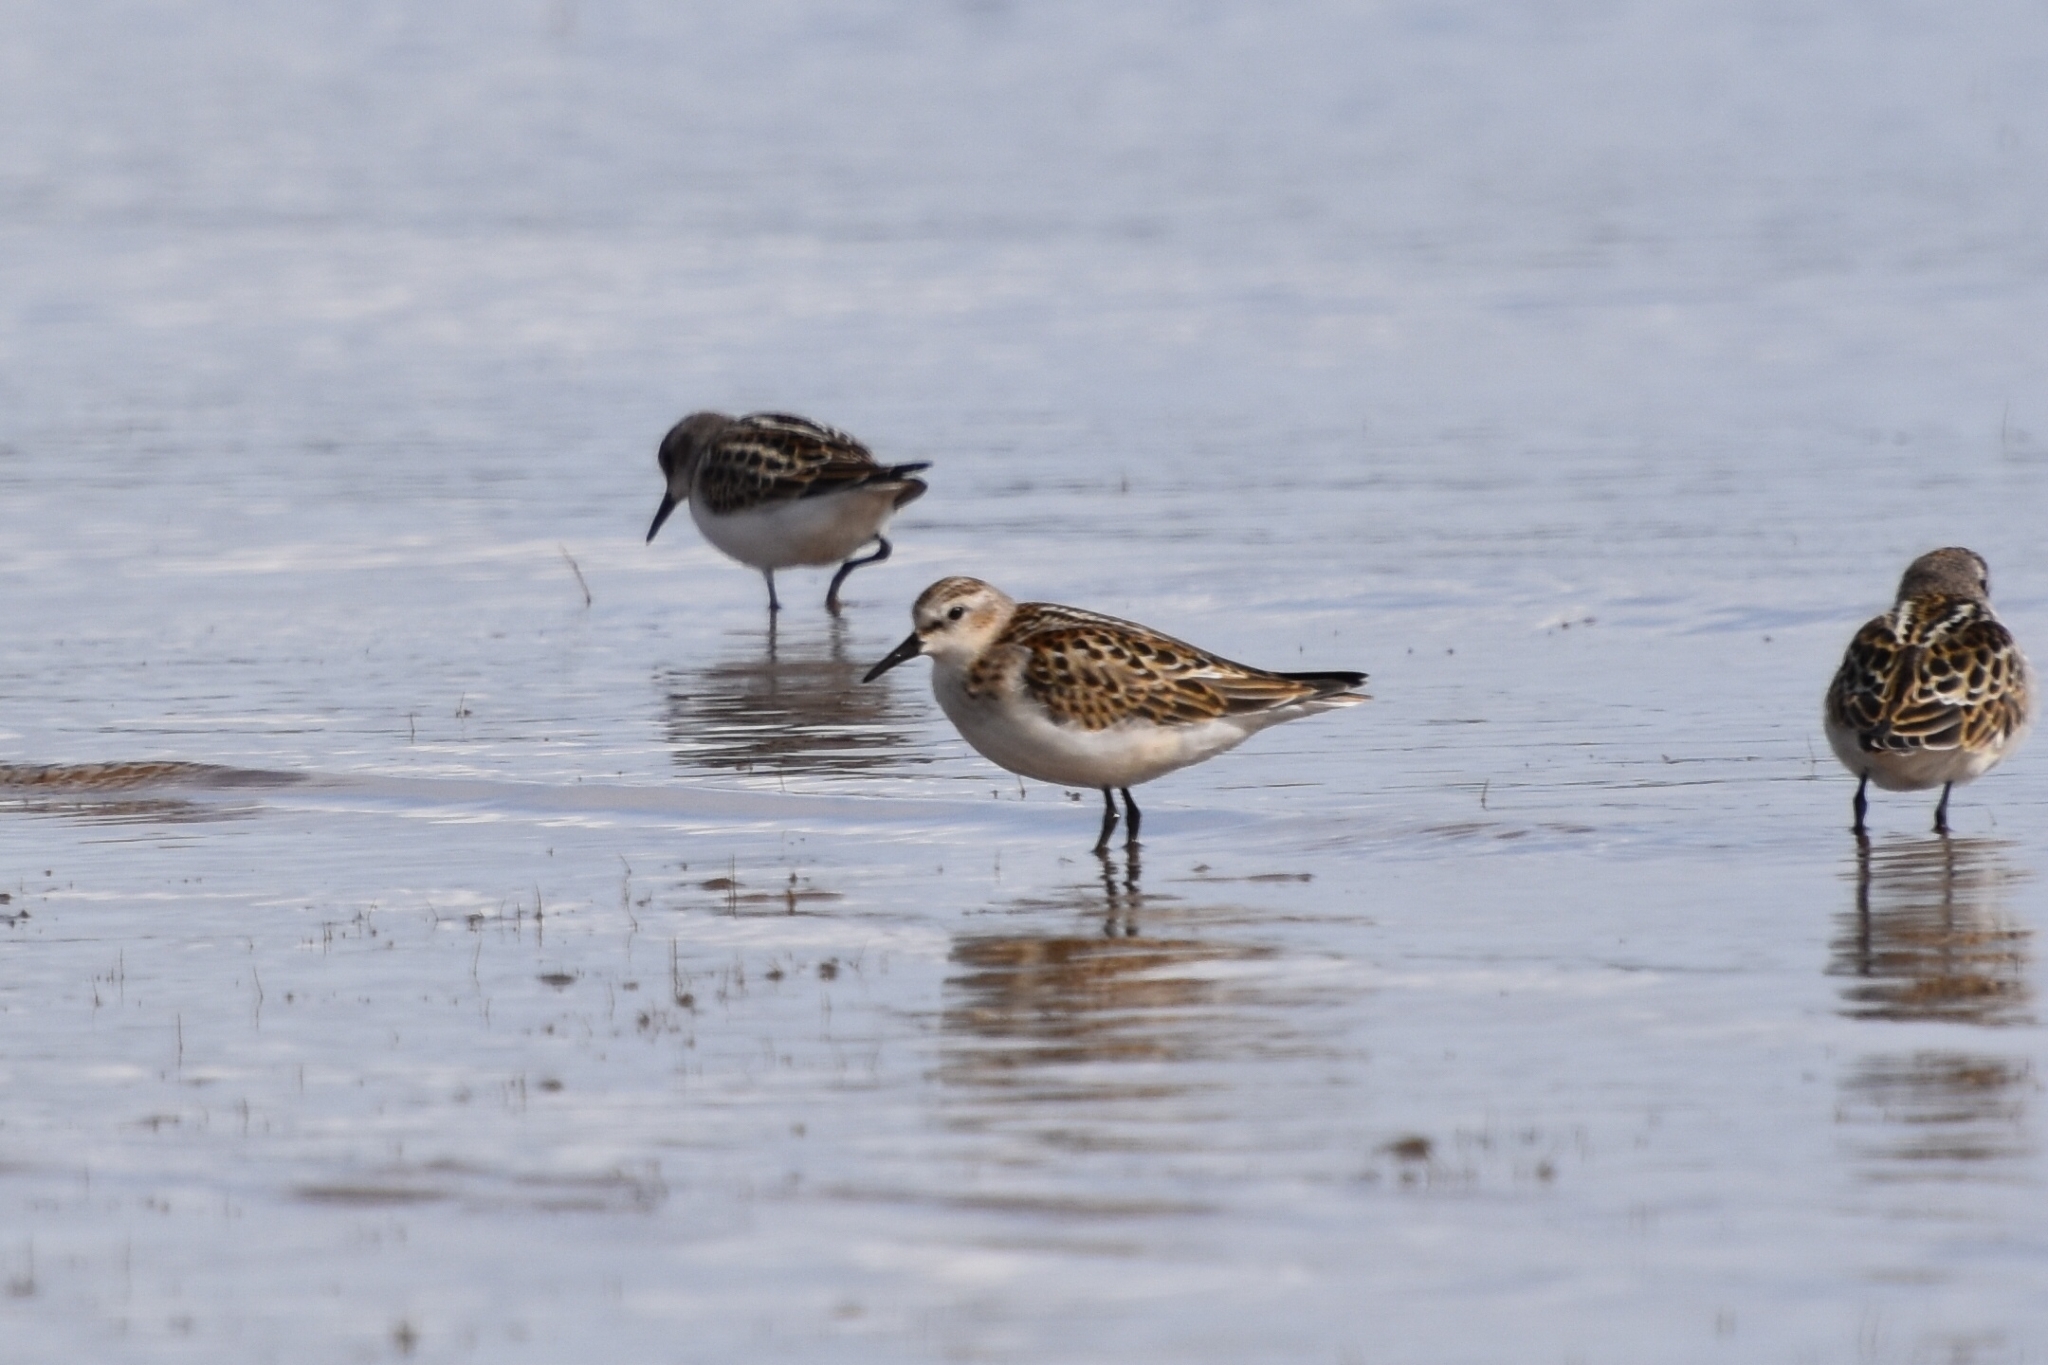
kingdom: Animalia
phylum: Chordata
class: Aves
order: Charadriiformes
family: Scolopacidae
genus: Calidris
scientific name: Calidris minuta
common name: Little stint
